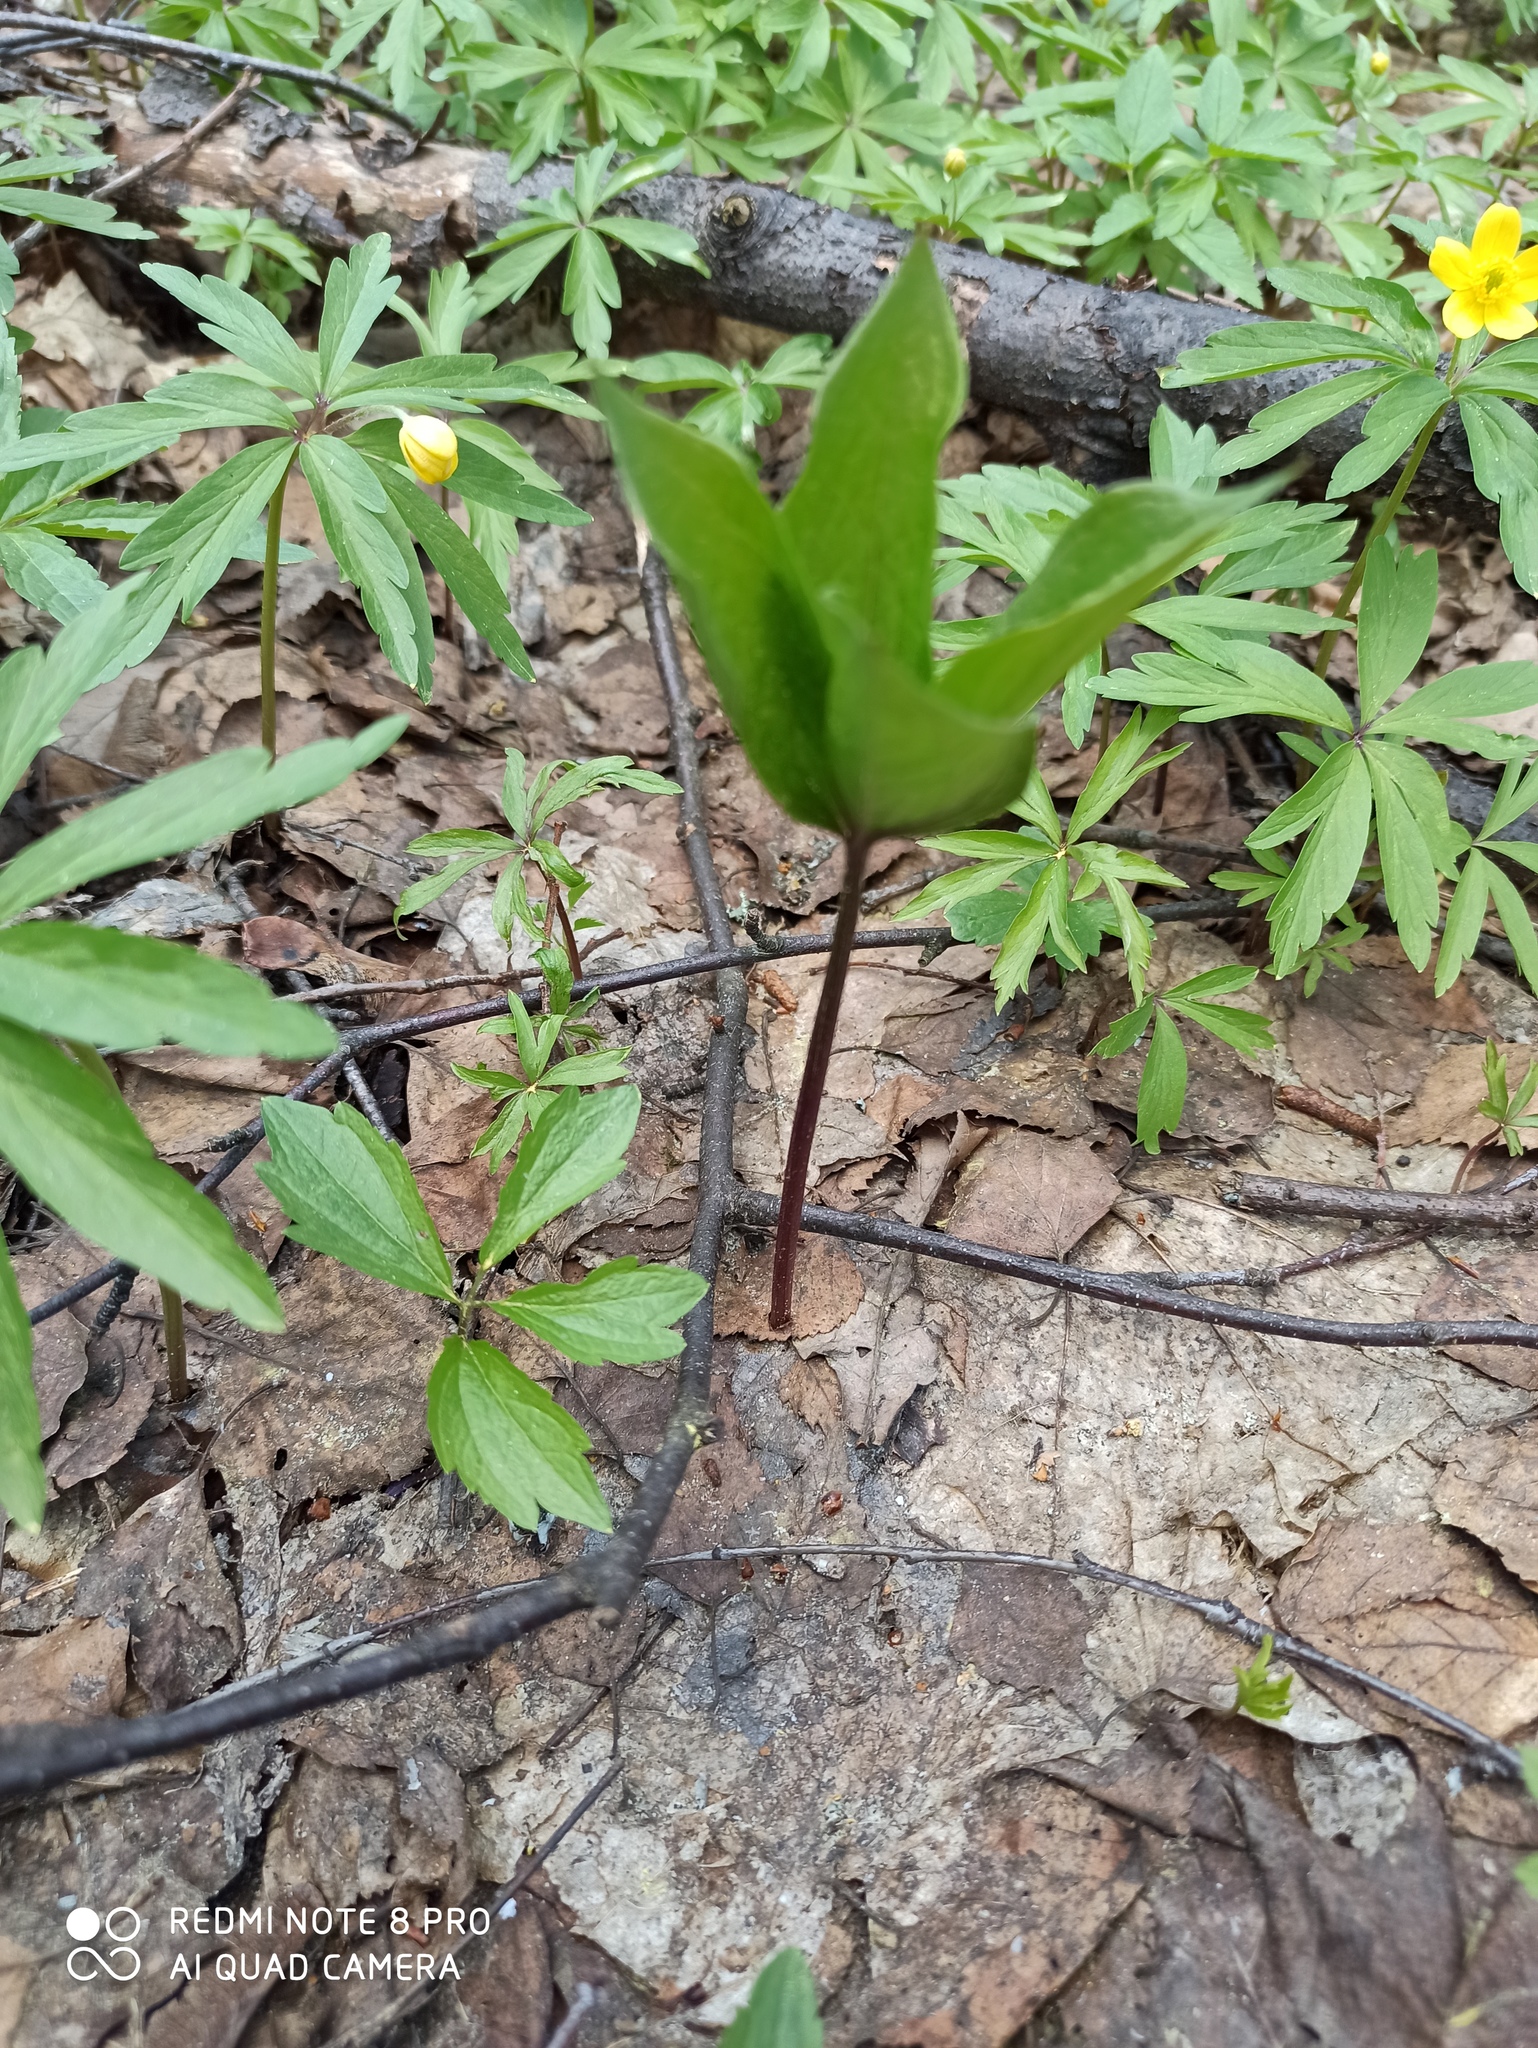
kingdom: Plantae
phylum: Tracheophyta
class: Liliopsida
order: Liliales
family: Melanthiaceae
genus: Paris
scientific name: Paris quadrifolia
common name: Herb-paris
